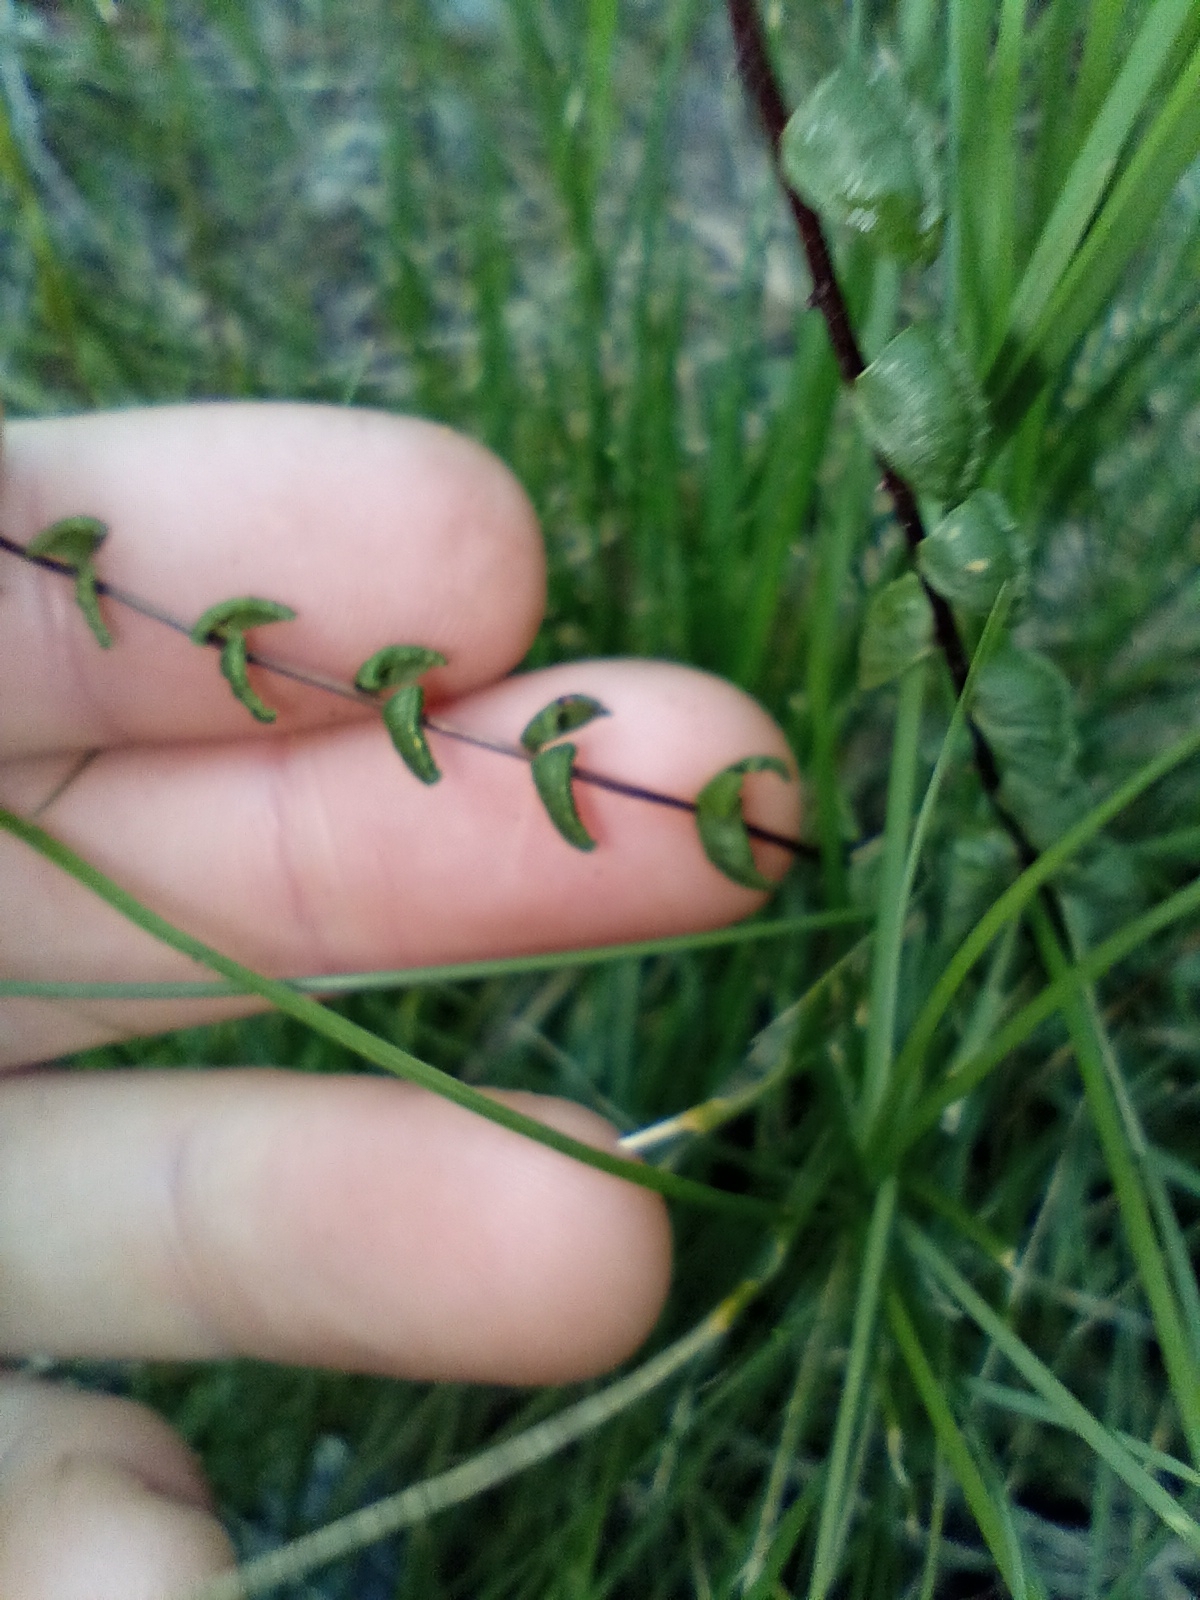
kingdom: Plantae
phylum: Tracheophyta
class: Polypodiopsida
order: Polypodiales
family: Lindsaeaceae
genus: Lindsaea
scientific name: Lindsaea linearis
